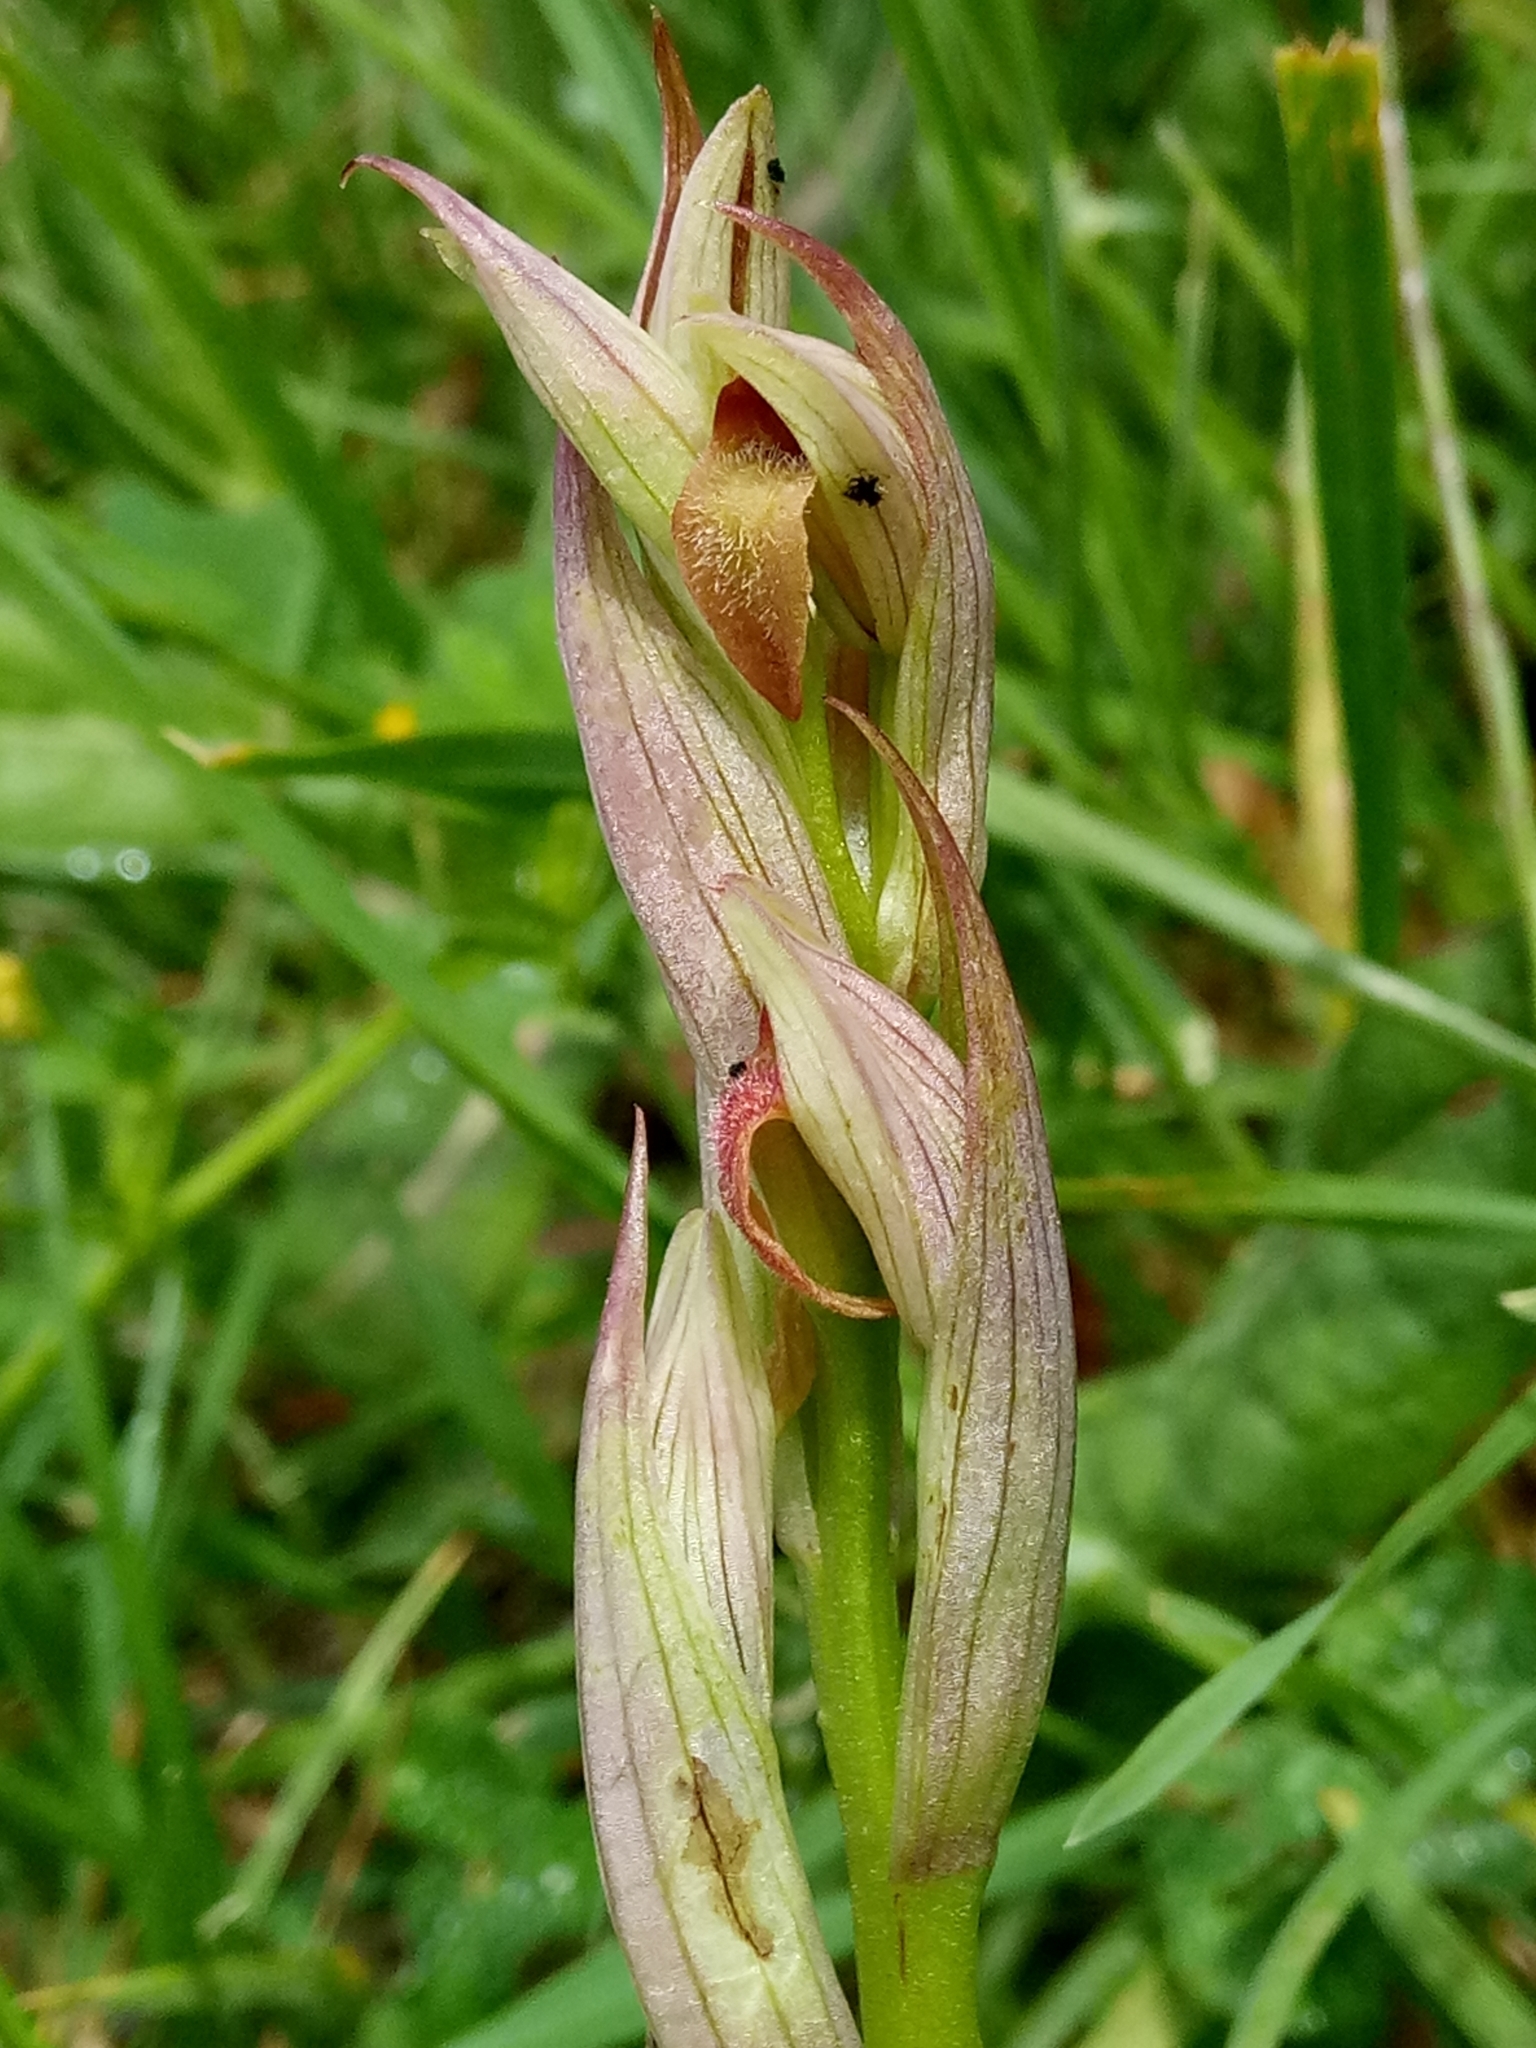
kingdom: Plantae
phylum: Tracheophyta
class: Liliopsida
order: Asparagales
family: Orchidaceae
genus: Serapias
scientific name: Serapias parviflora
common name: Small-flowered tongue-orchid
